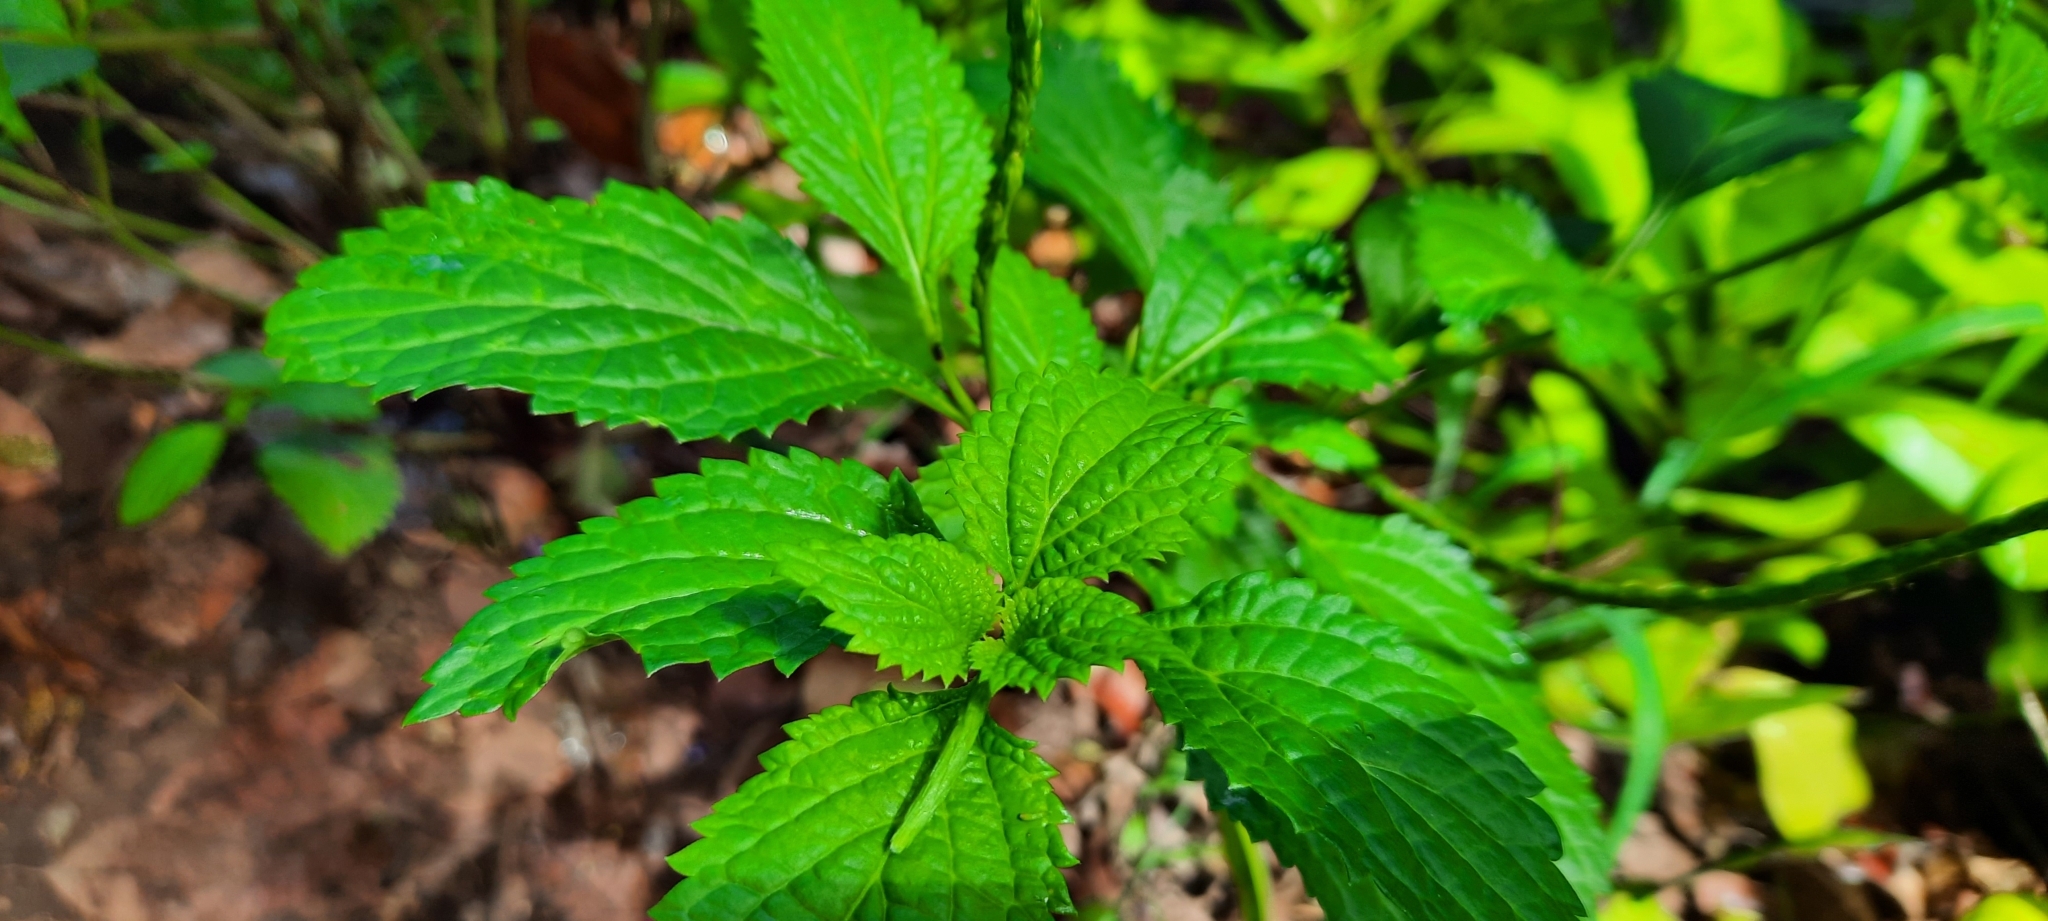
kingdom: Plantae
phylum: Tracheophyta
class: Magnoliopsida
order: Lamiales
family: Verbenaceae
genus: Stachytarpheta
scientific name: Stachytarpheta cayennensis
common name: Cayenne porterweed
